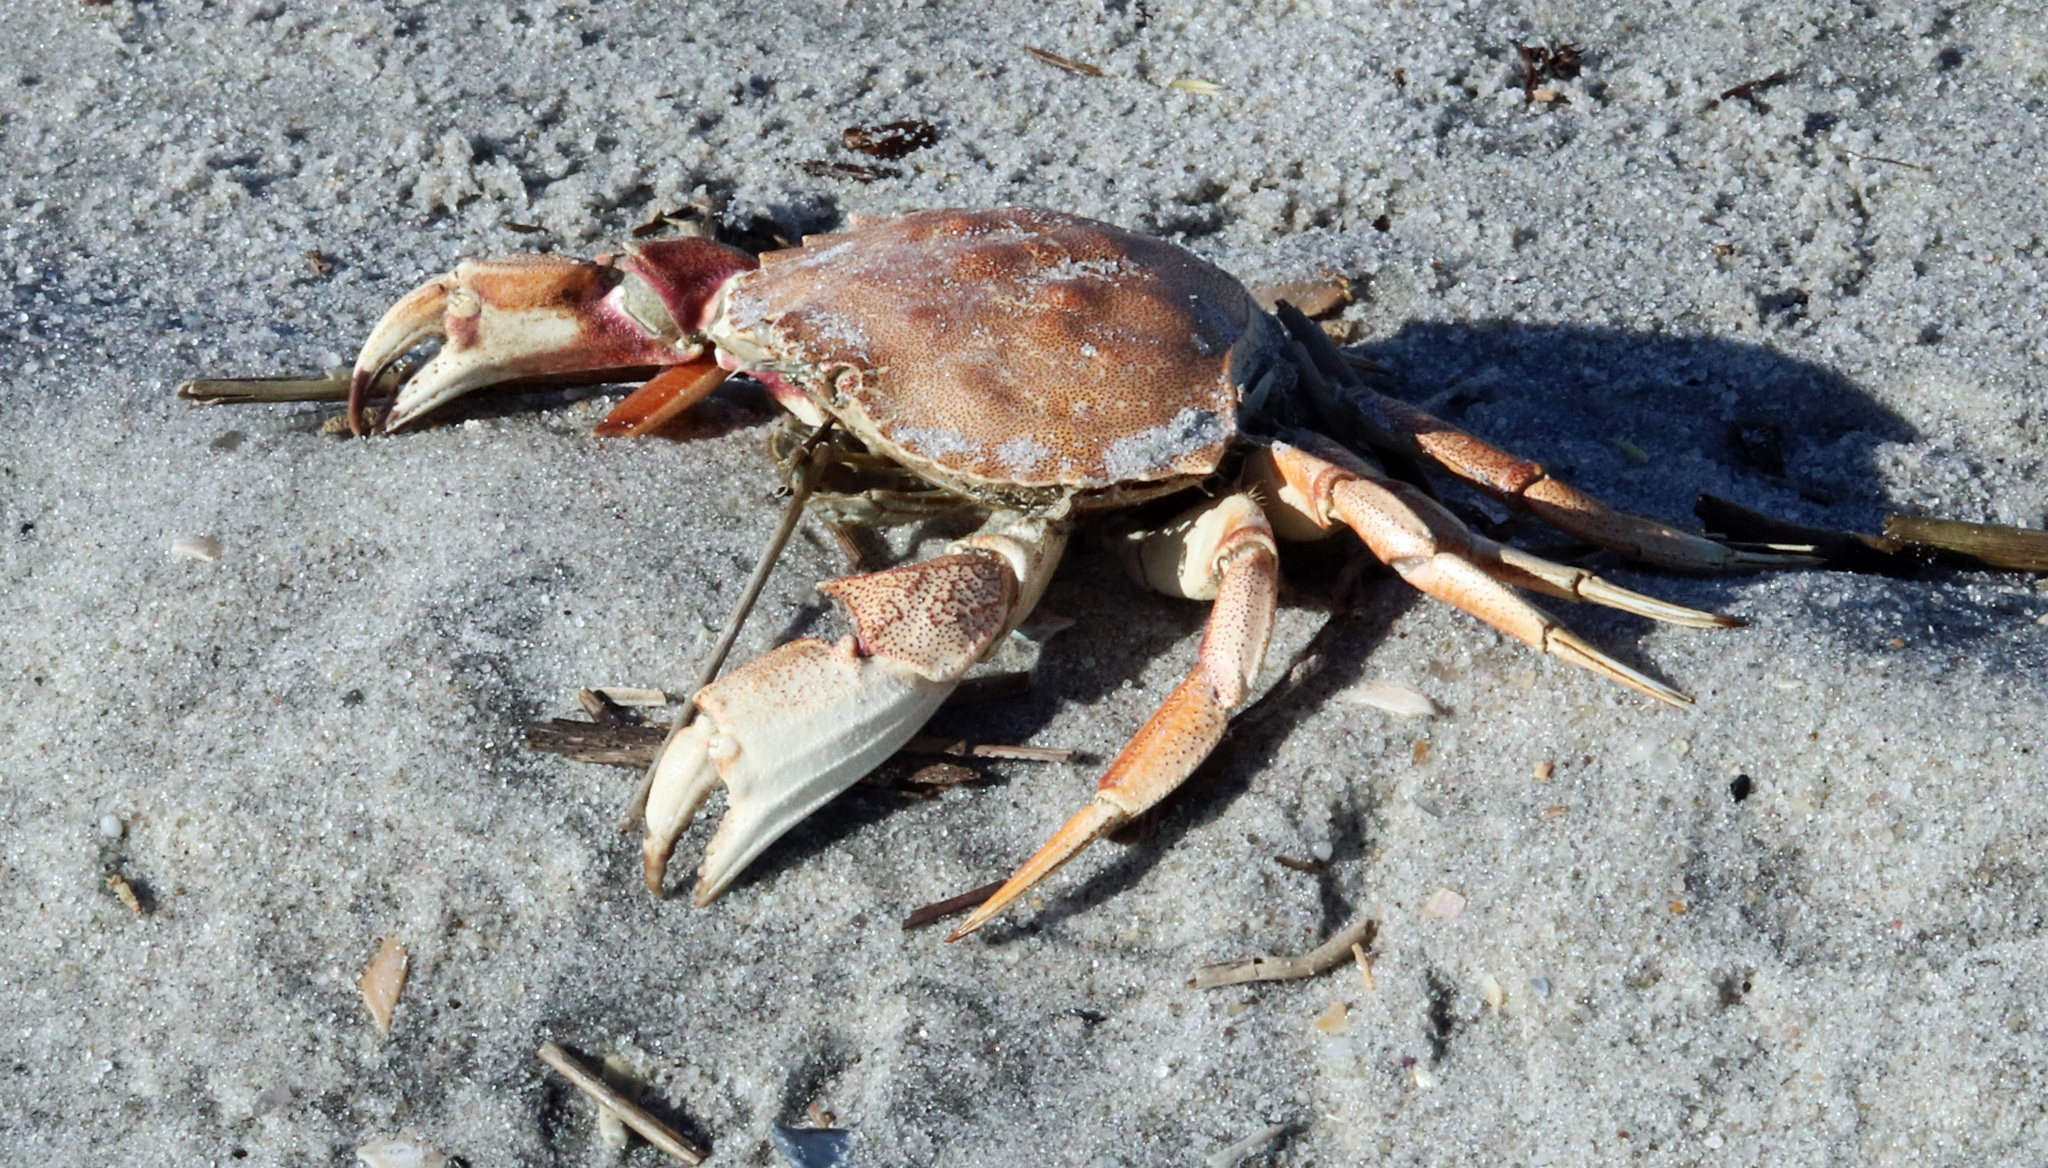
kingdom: Animalia
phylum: Arthropoda
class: Malacostraca
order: Decapoda
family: Cancridae
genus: Cancer
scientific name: Cancer irroratus
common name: Atlantic rock crab
